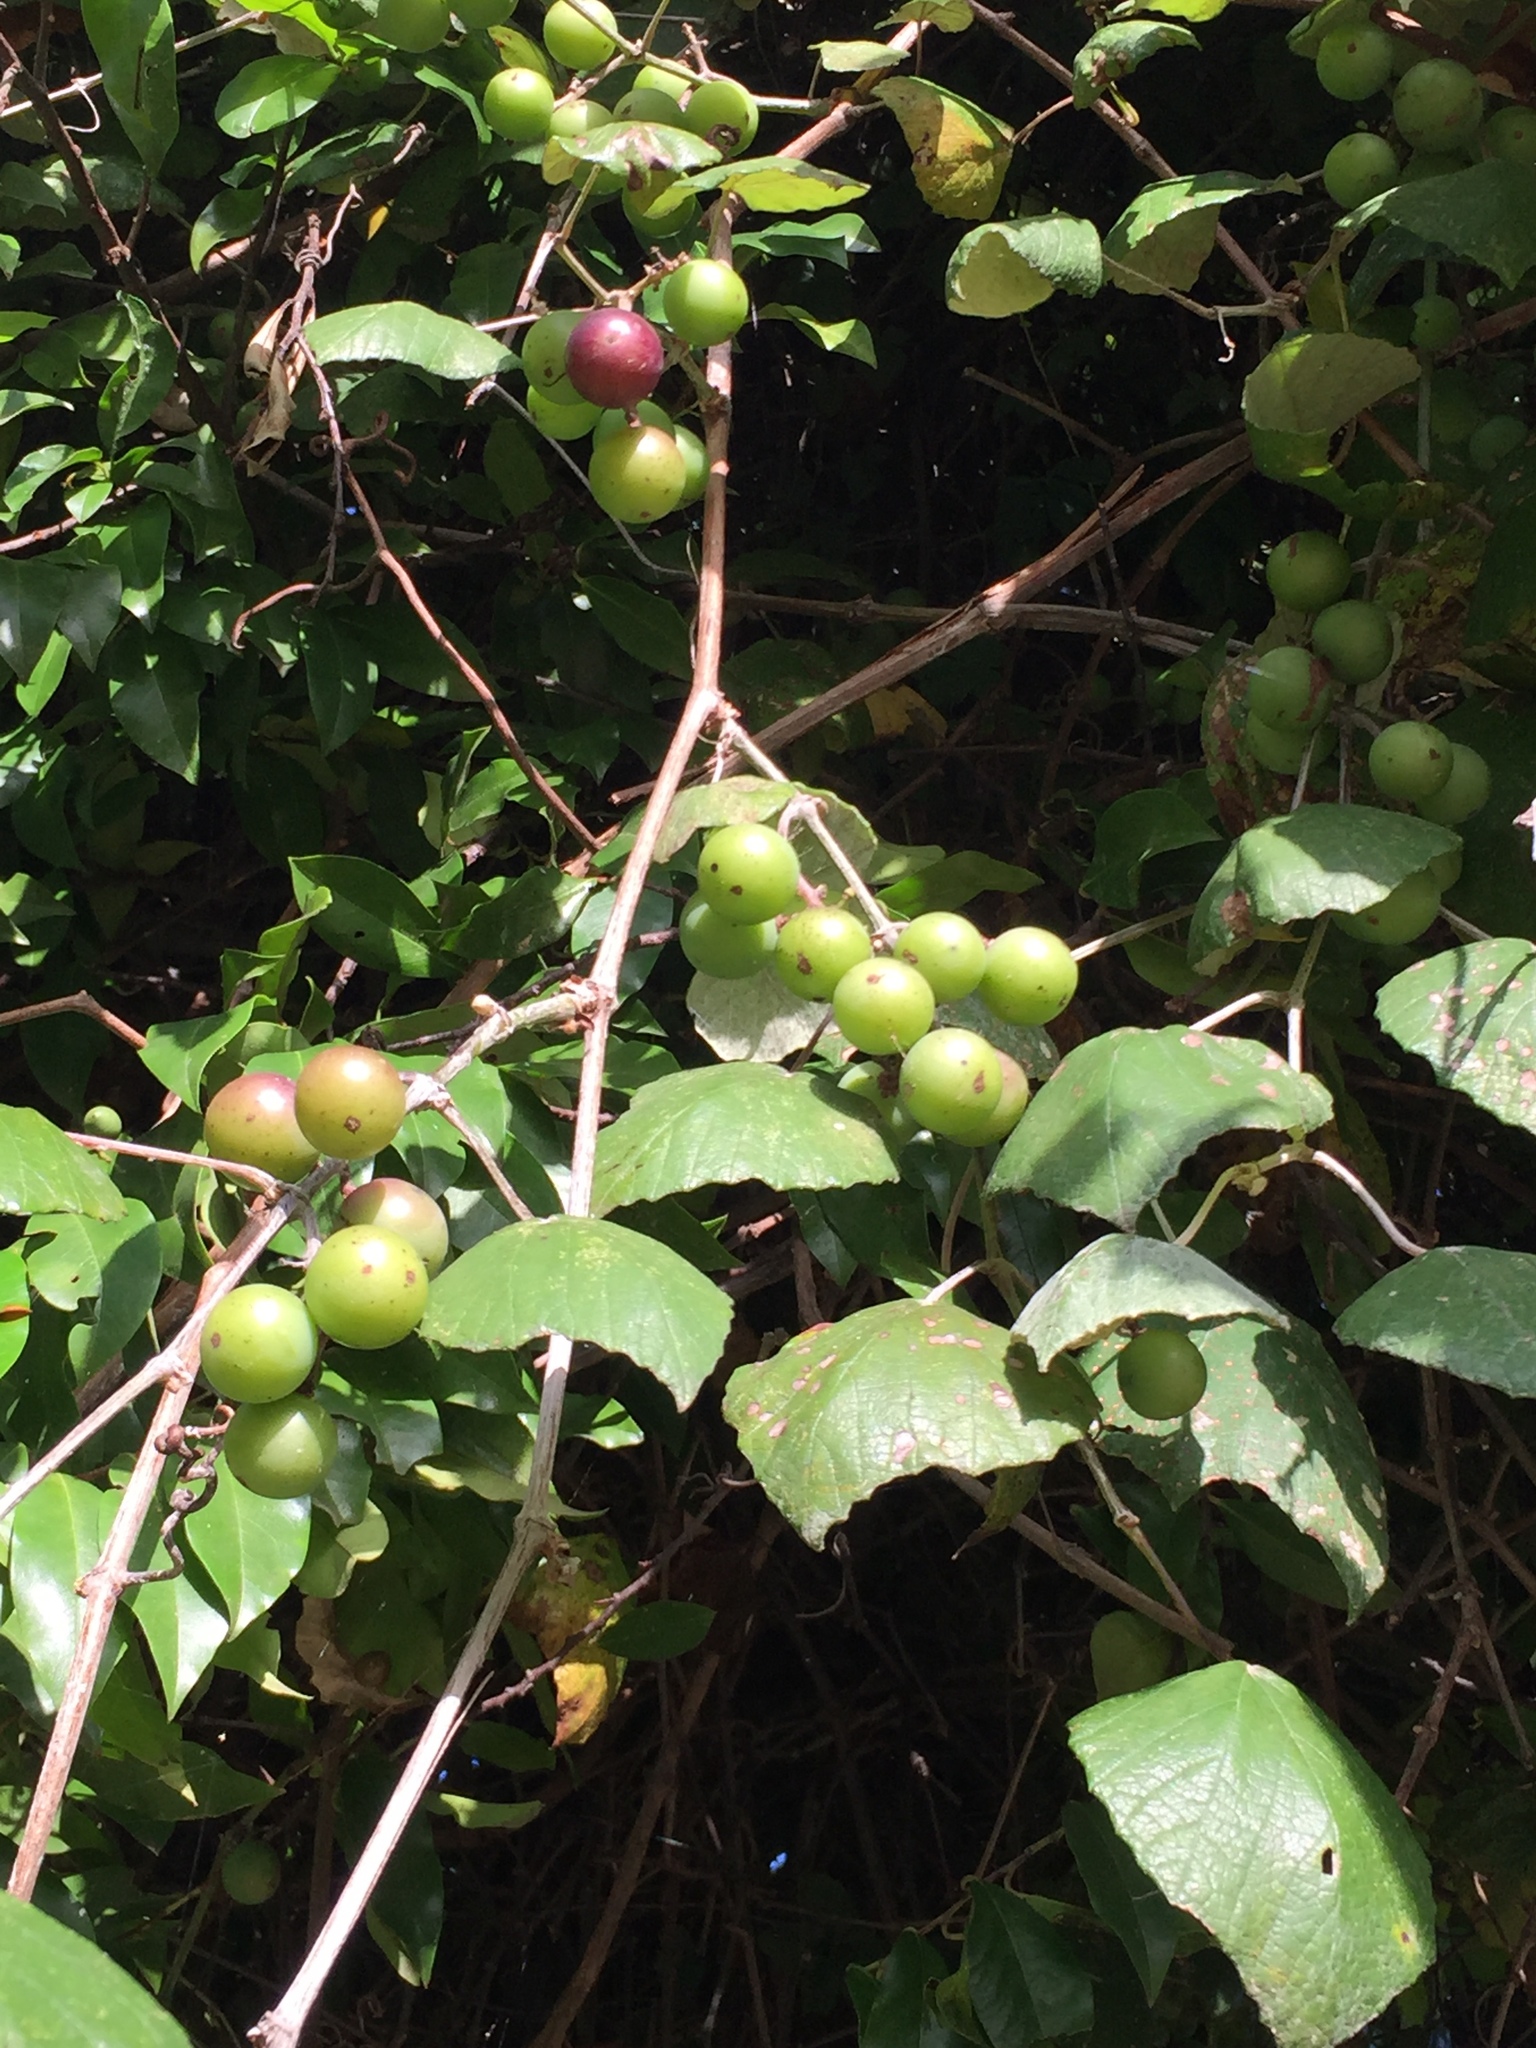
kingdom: Plantae
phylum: Tracheophyta
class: Magnoliopsida
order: Vitales
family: Vitaceae
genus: Vitis
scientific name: Vitis mustangensis
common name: Mustang grape
